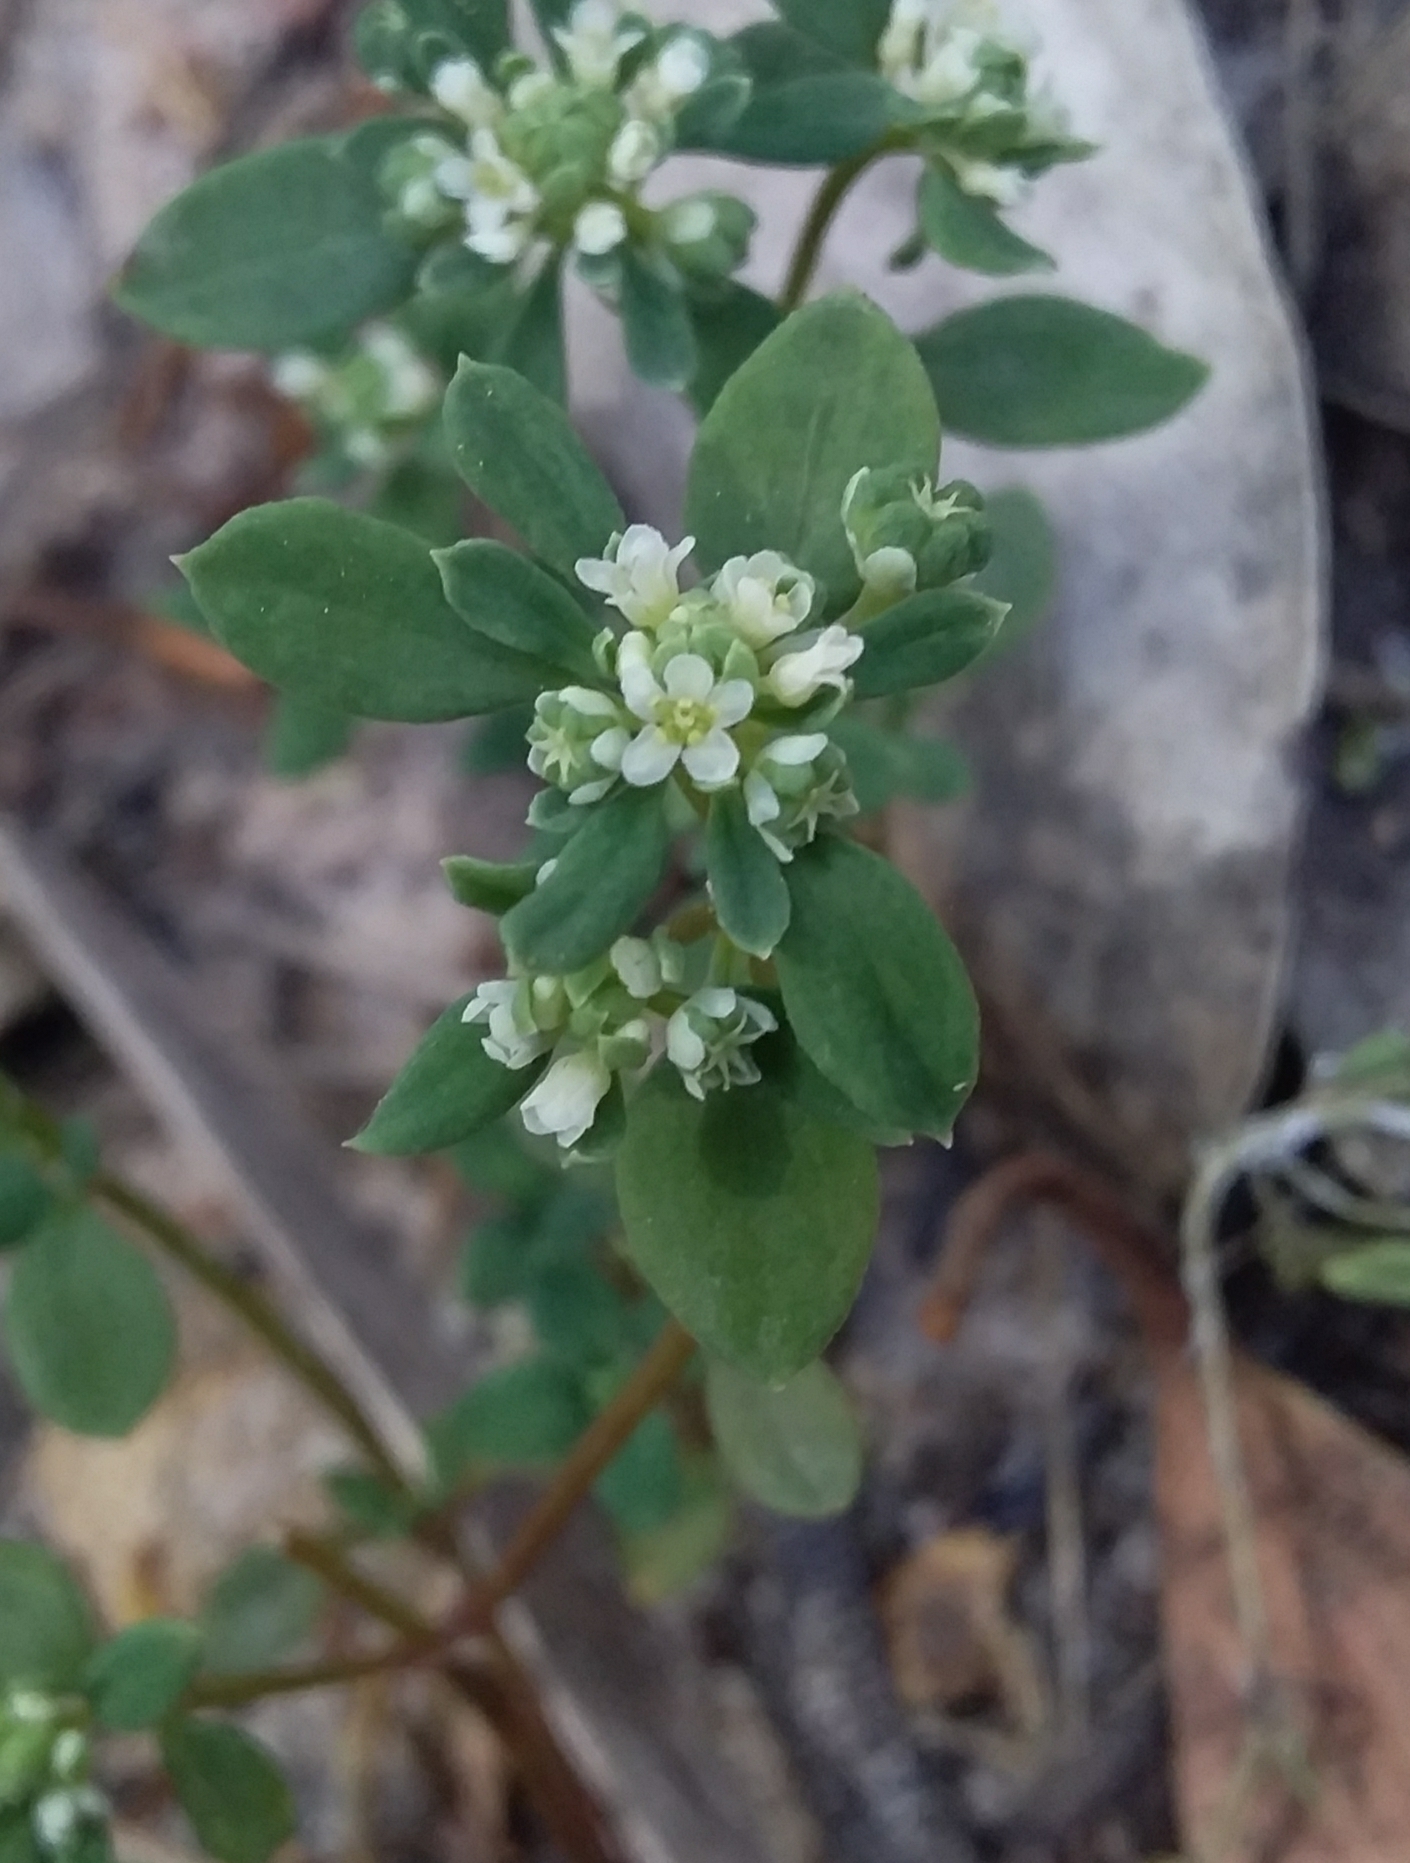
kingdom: Plantae
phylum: Tracheophyta
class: Magnoliopsida
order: Malpighiales
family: Phyllanthaceae
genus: Poranthera
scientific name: Poranthera microphylla
